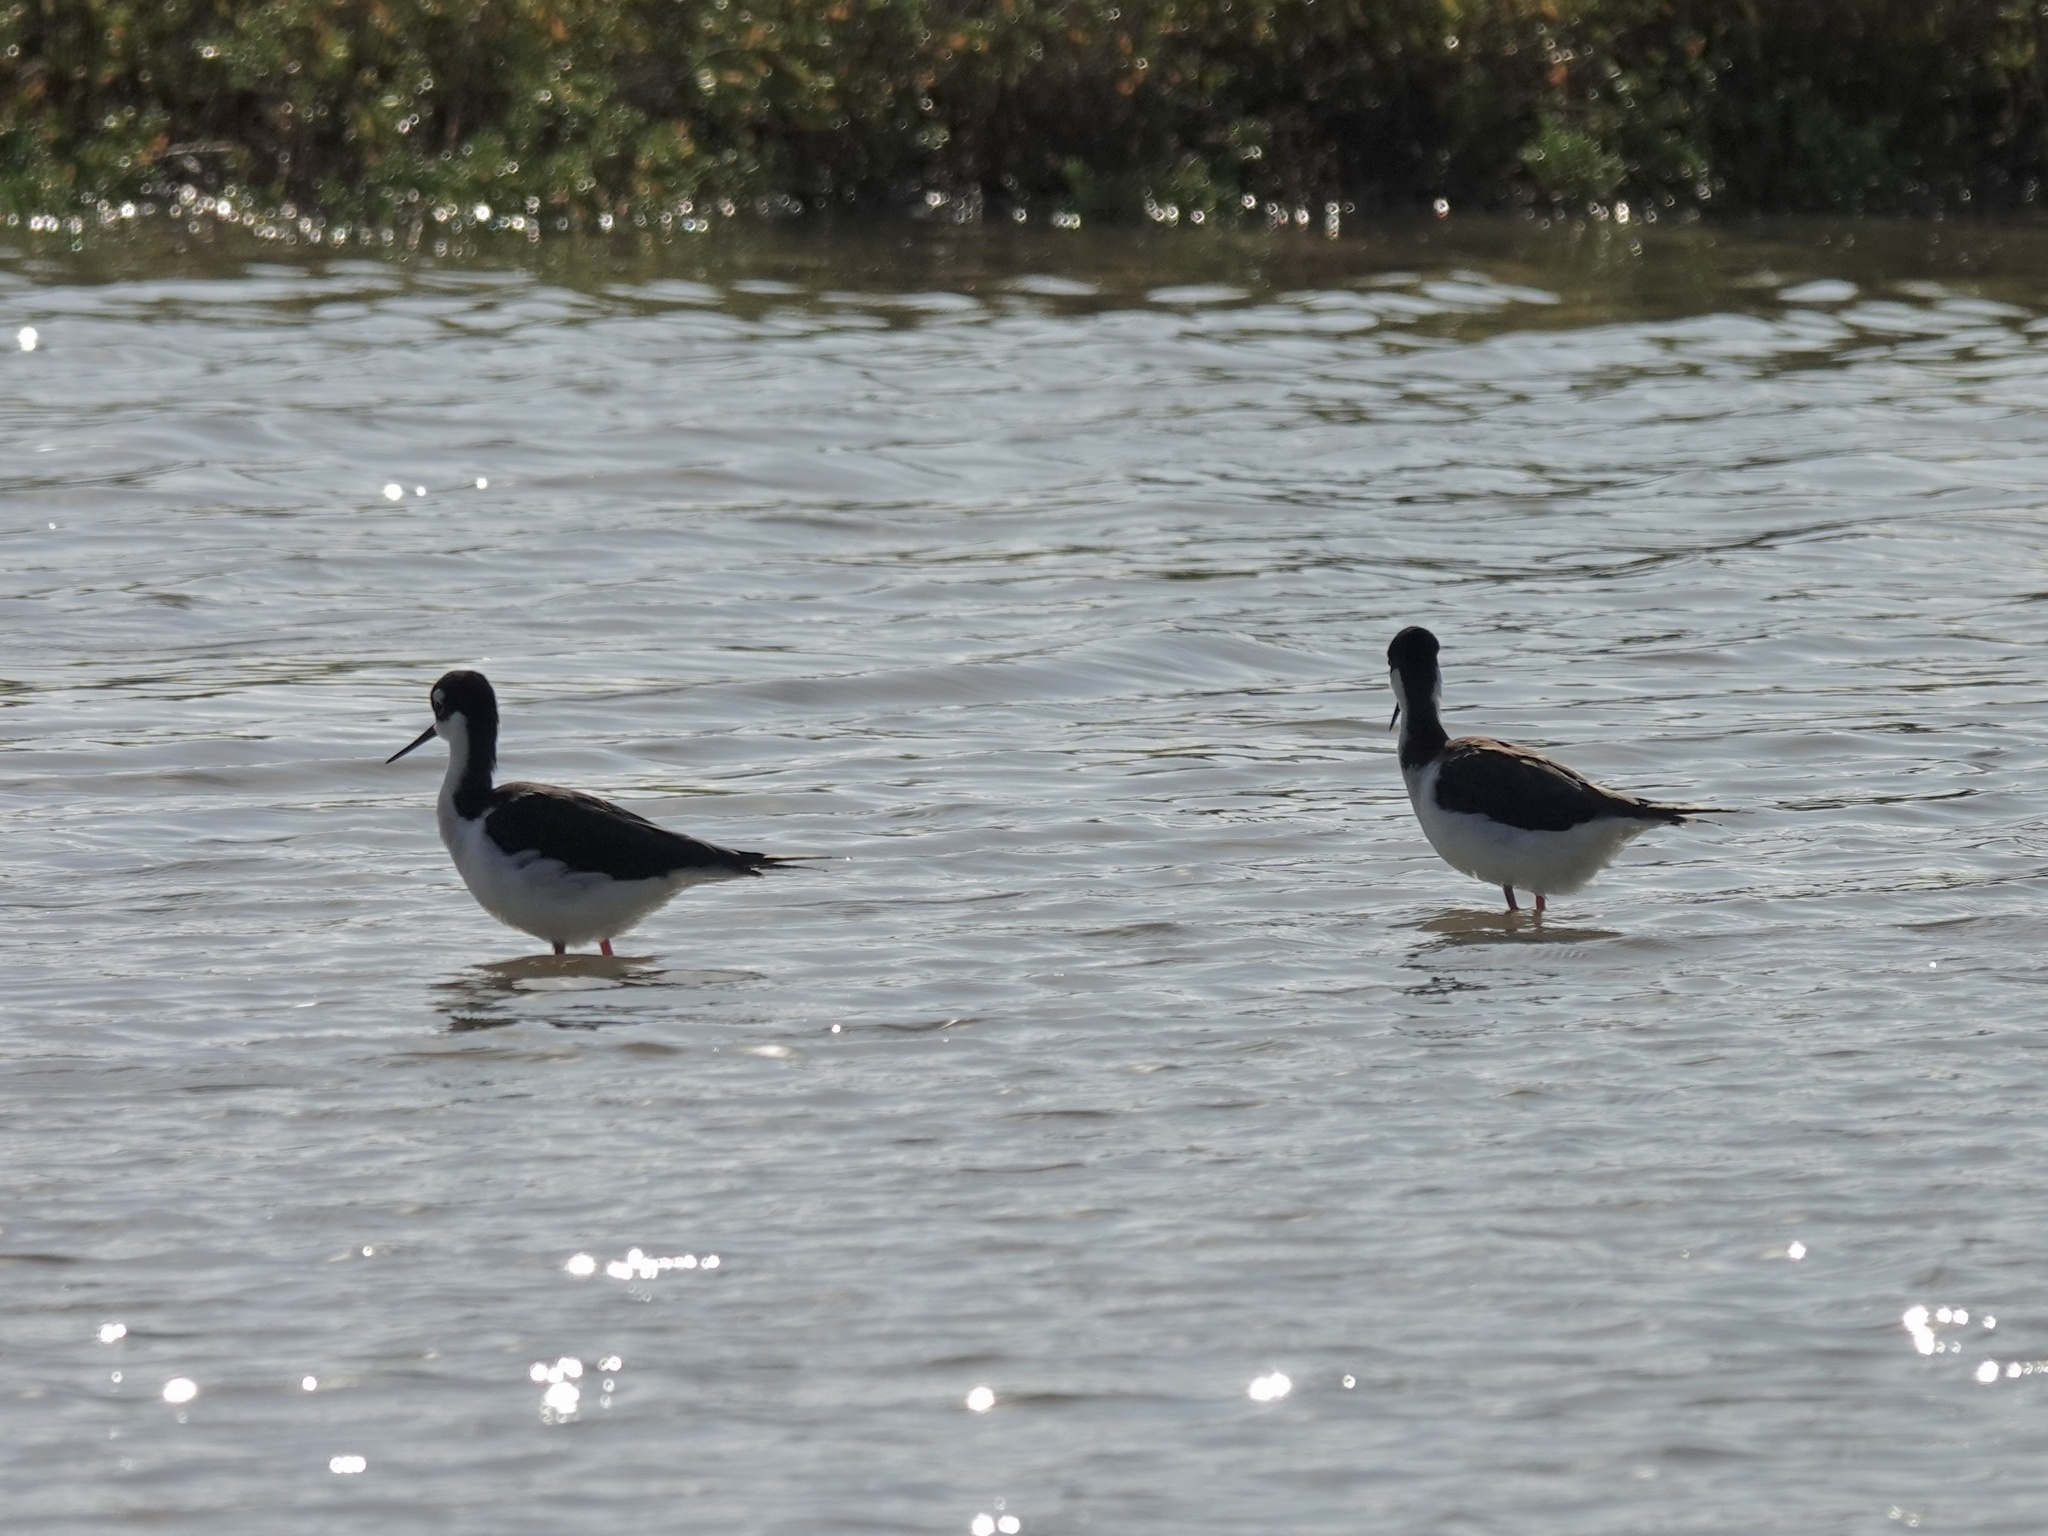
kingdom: Animalia
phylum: Chordata
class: Aves
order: Charadriiformes
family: Recurvirostridae
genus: Himantopus
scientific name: Himantopus mexicanus
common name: Black-necked stilt
